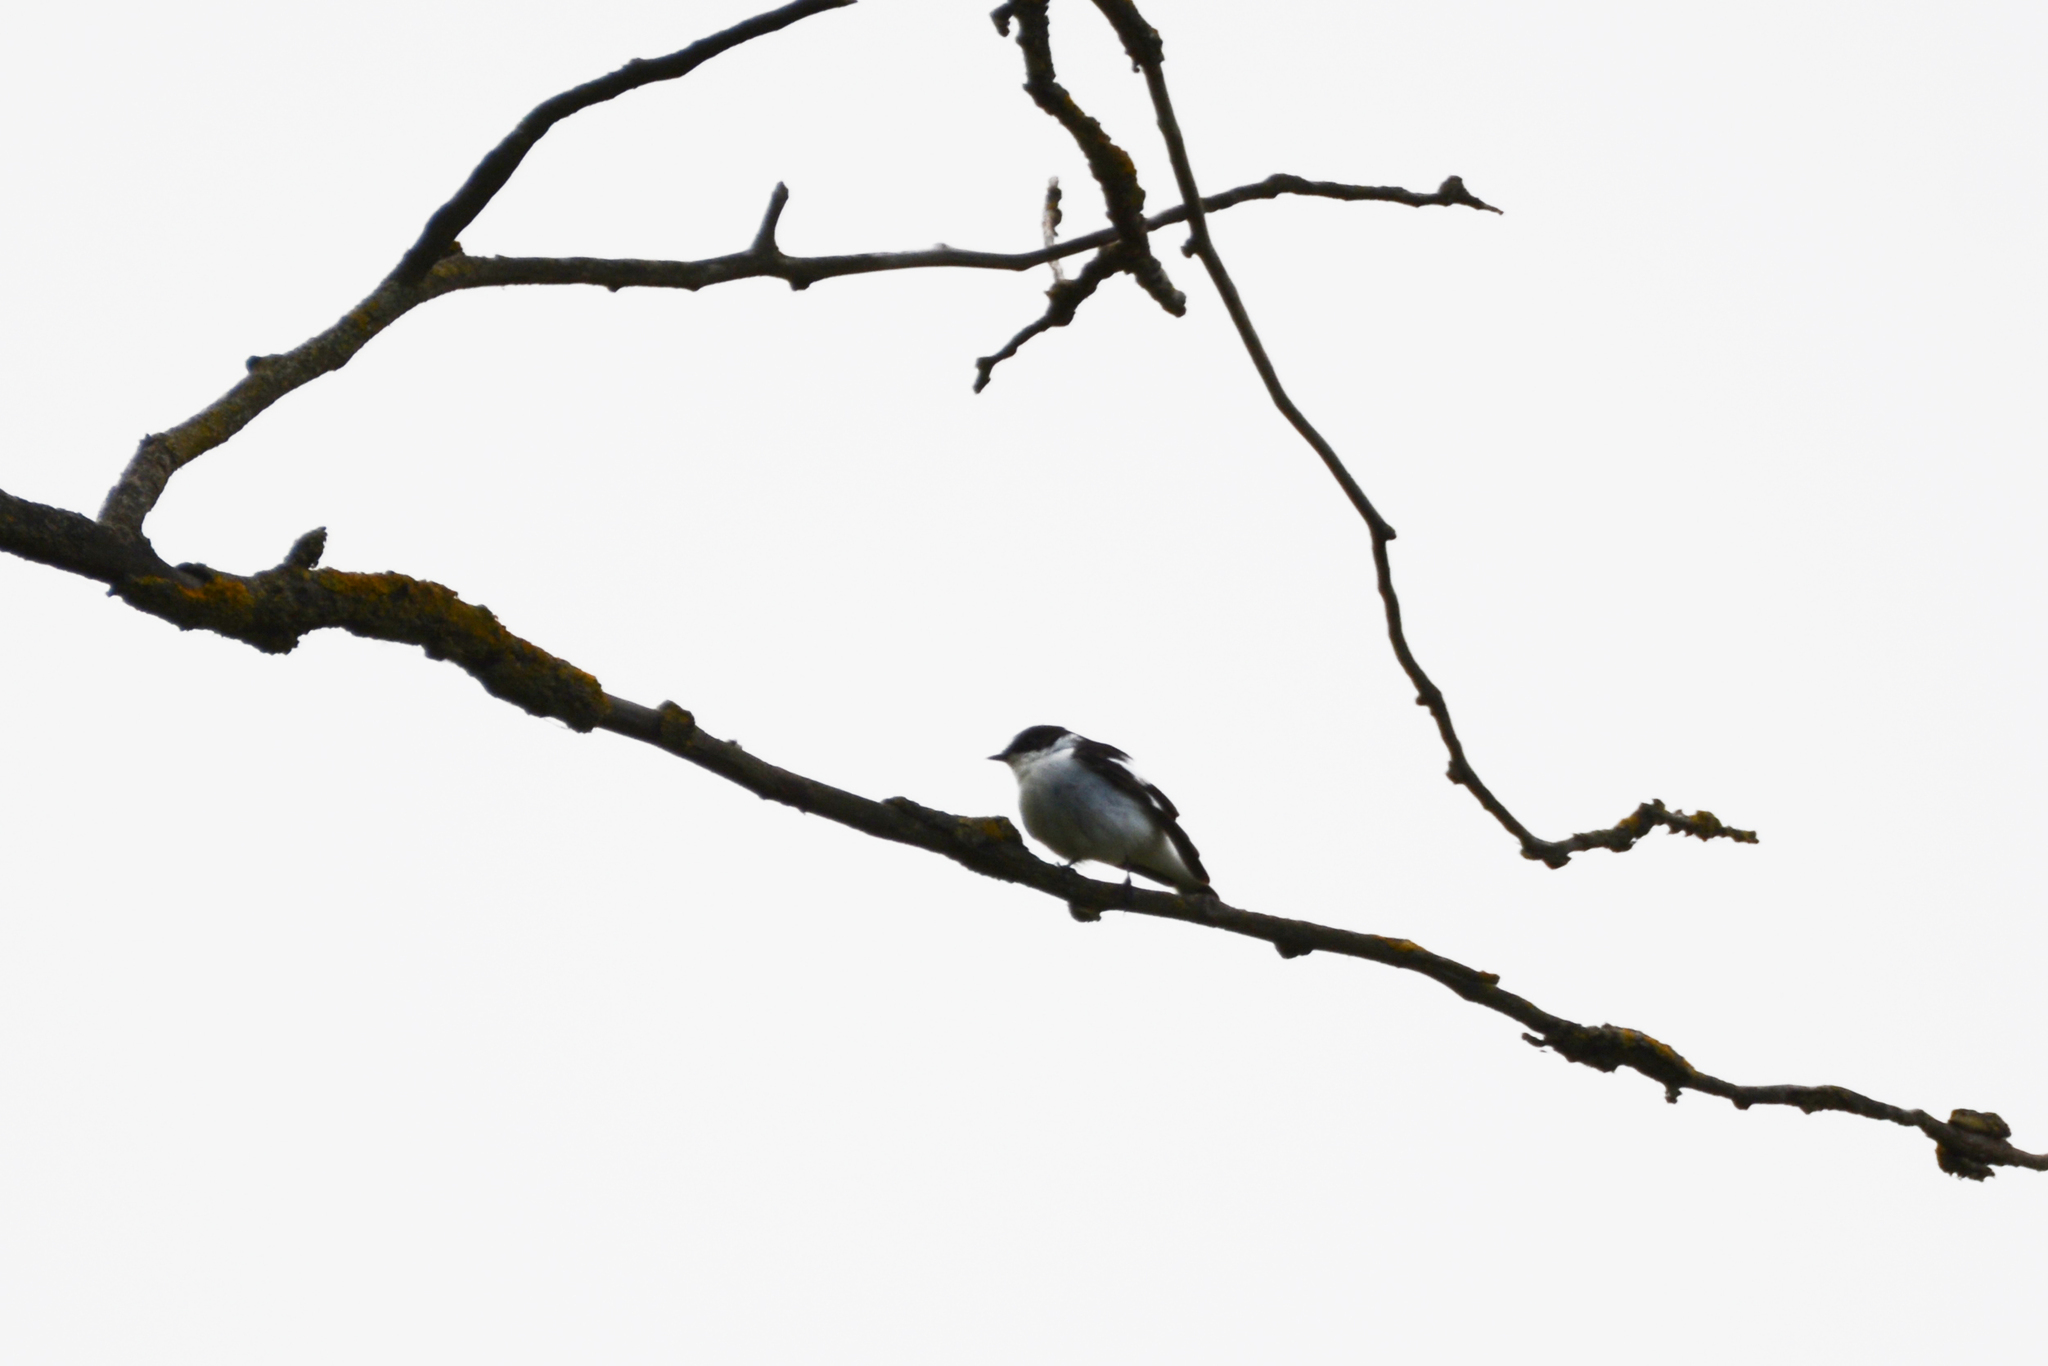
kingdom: Animalia
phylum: Chordata
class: Aves
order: Passeriformes
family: Muscicapidae
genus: Ficedula
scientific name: Ficedula semitorquata
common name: Semicollared flycatcher
